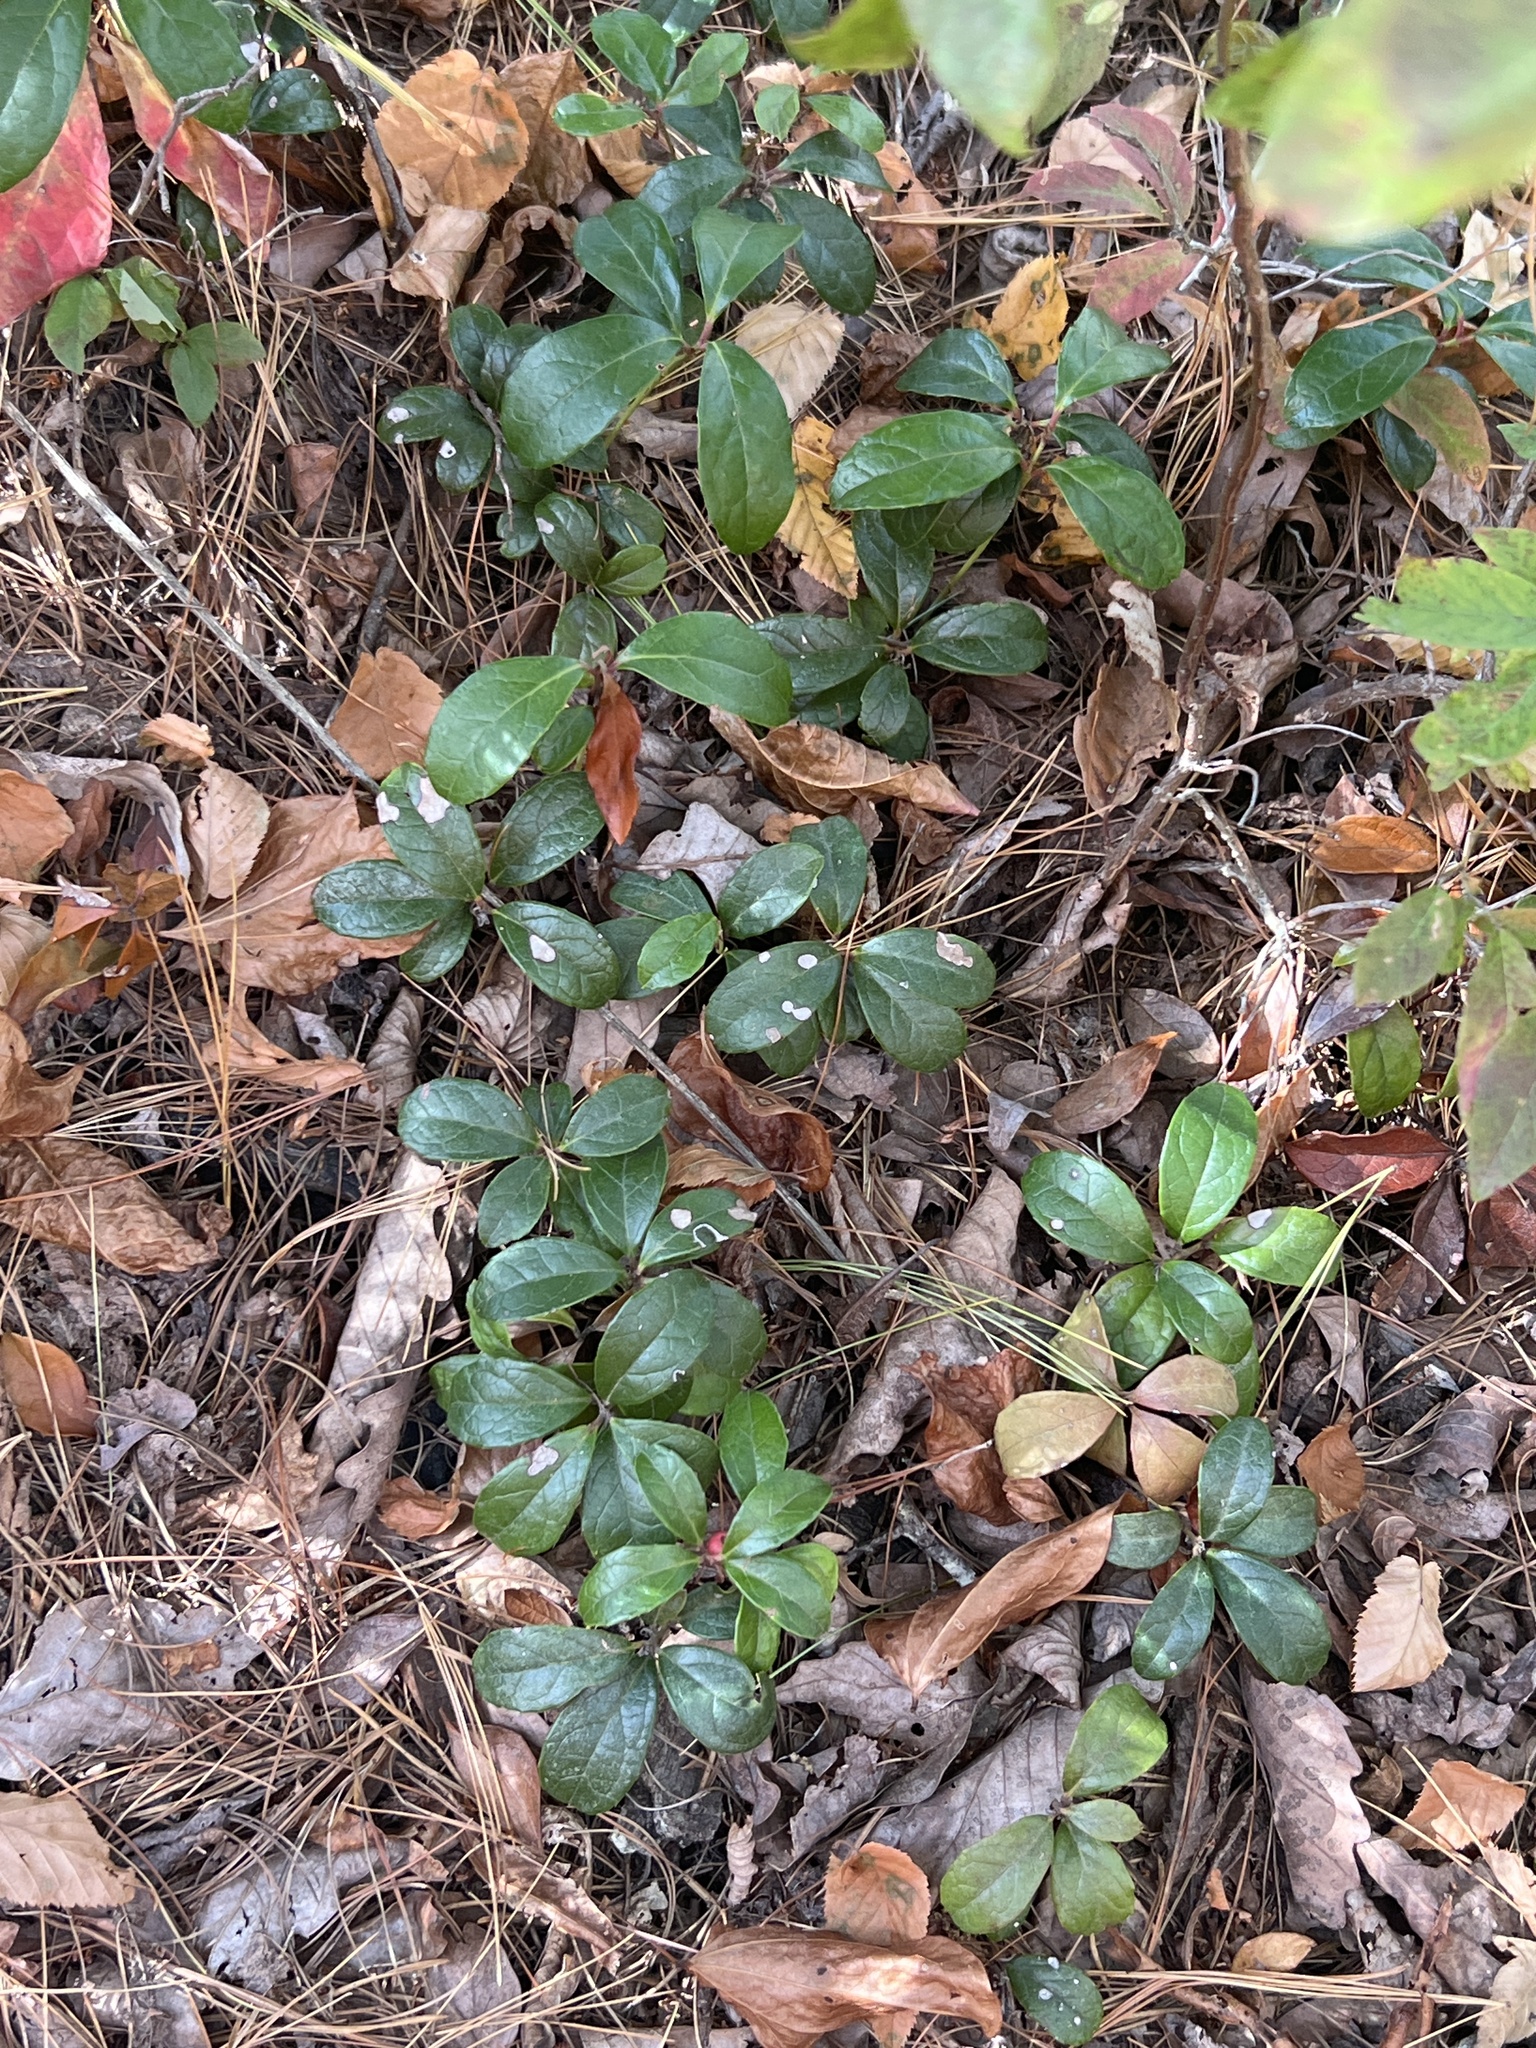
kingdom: Plantae
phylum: Tracheophyta
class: Magnoliopsida
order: Ericales
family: Ericaceae
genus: Gaultheria
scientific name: Gaultheria procumbens
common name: Checkerberry
